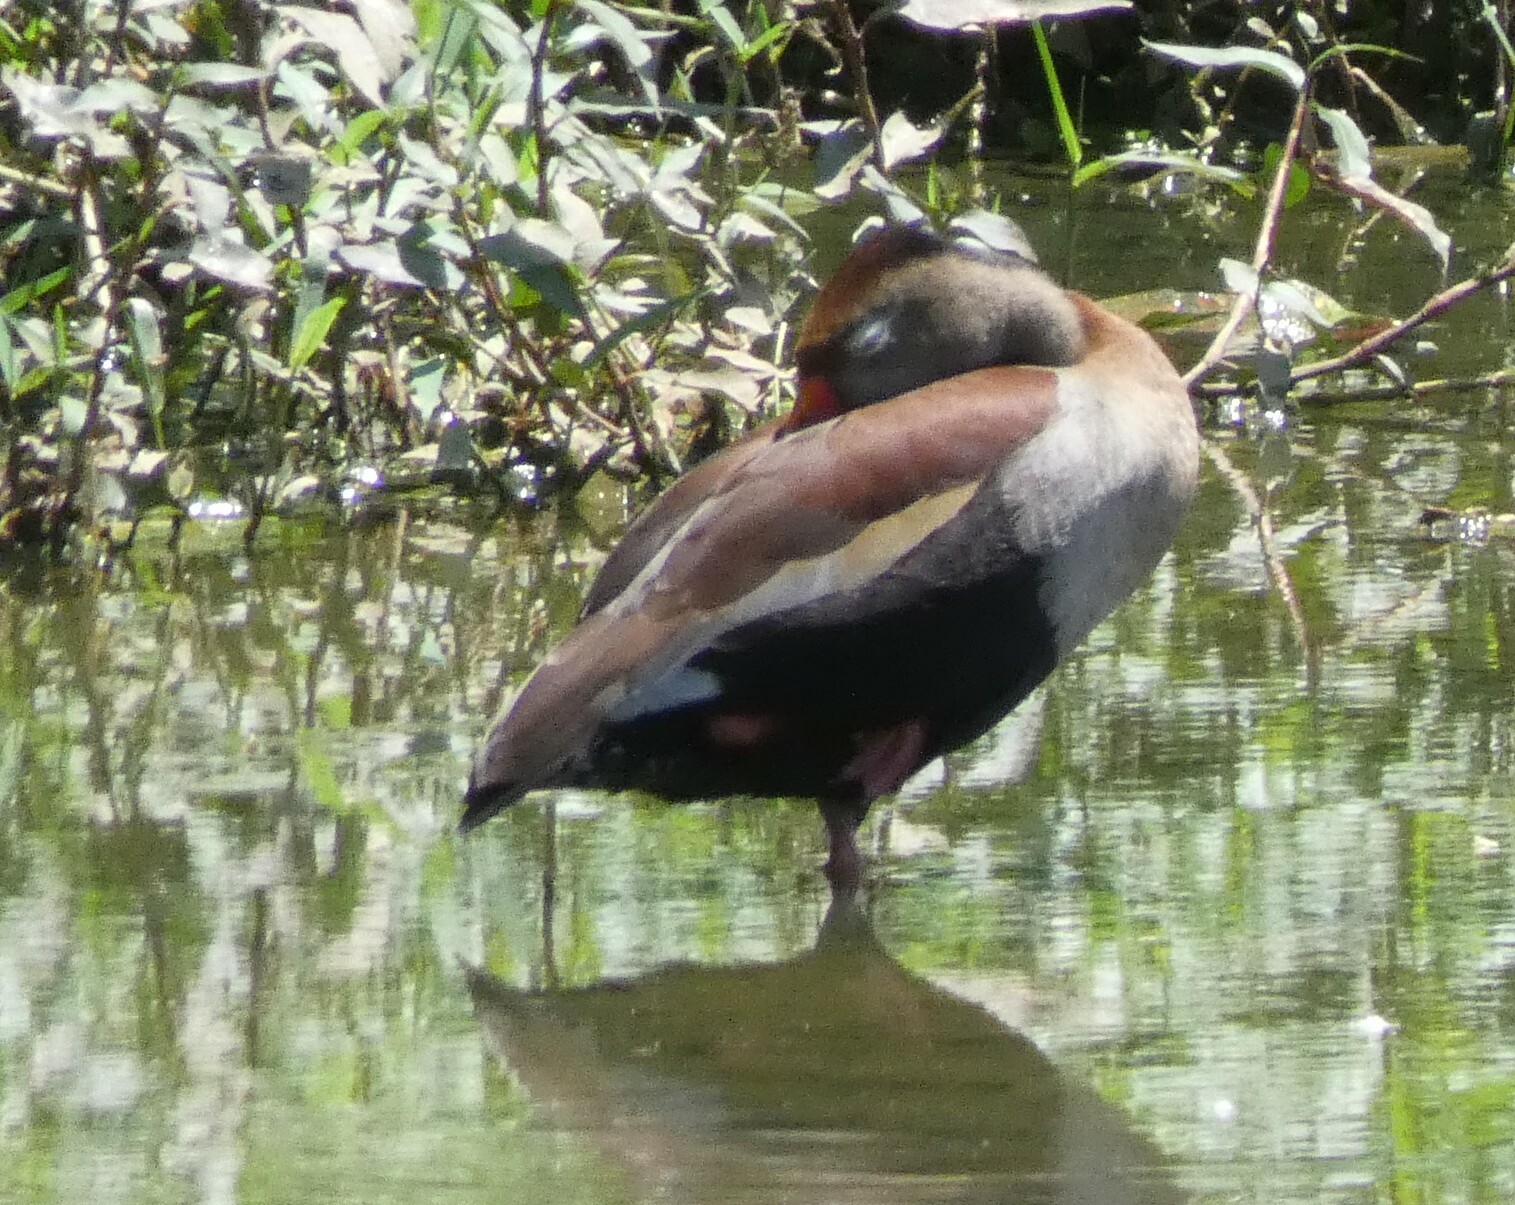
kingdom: Animalia
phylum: Chordata
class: Aves
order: Anseriformes
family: Anatidae
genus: Dendrocygna
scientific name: Dendrocygna autumnalis
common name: Black-bellied whistling duck
